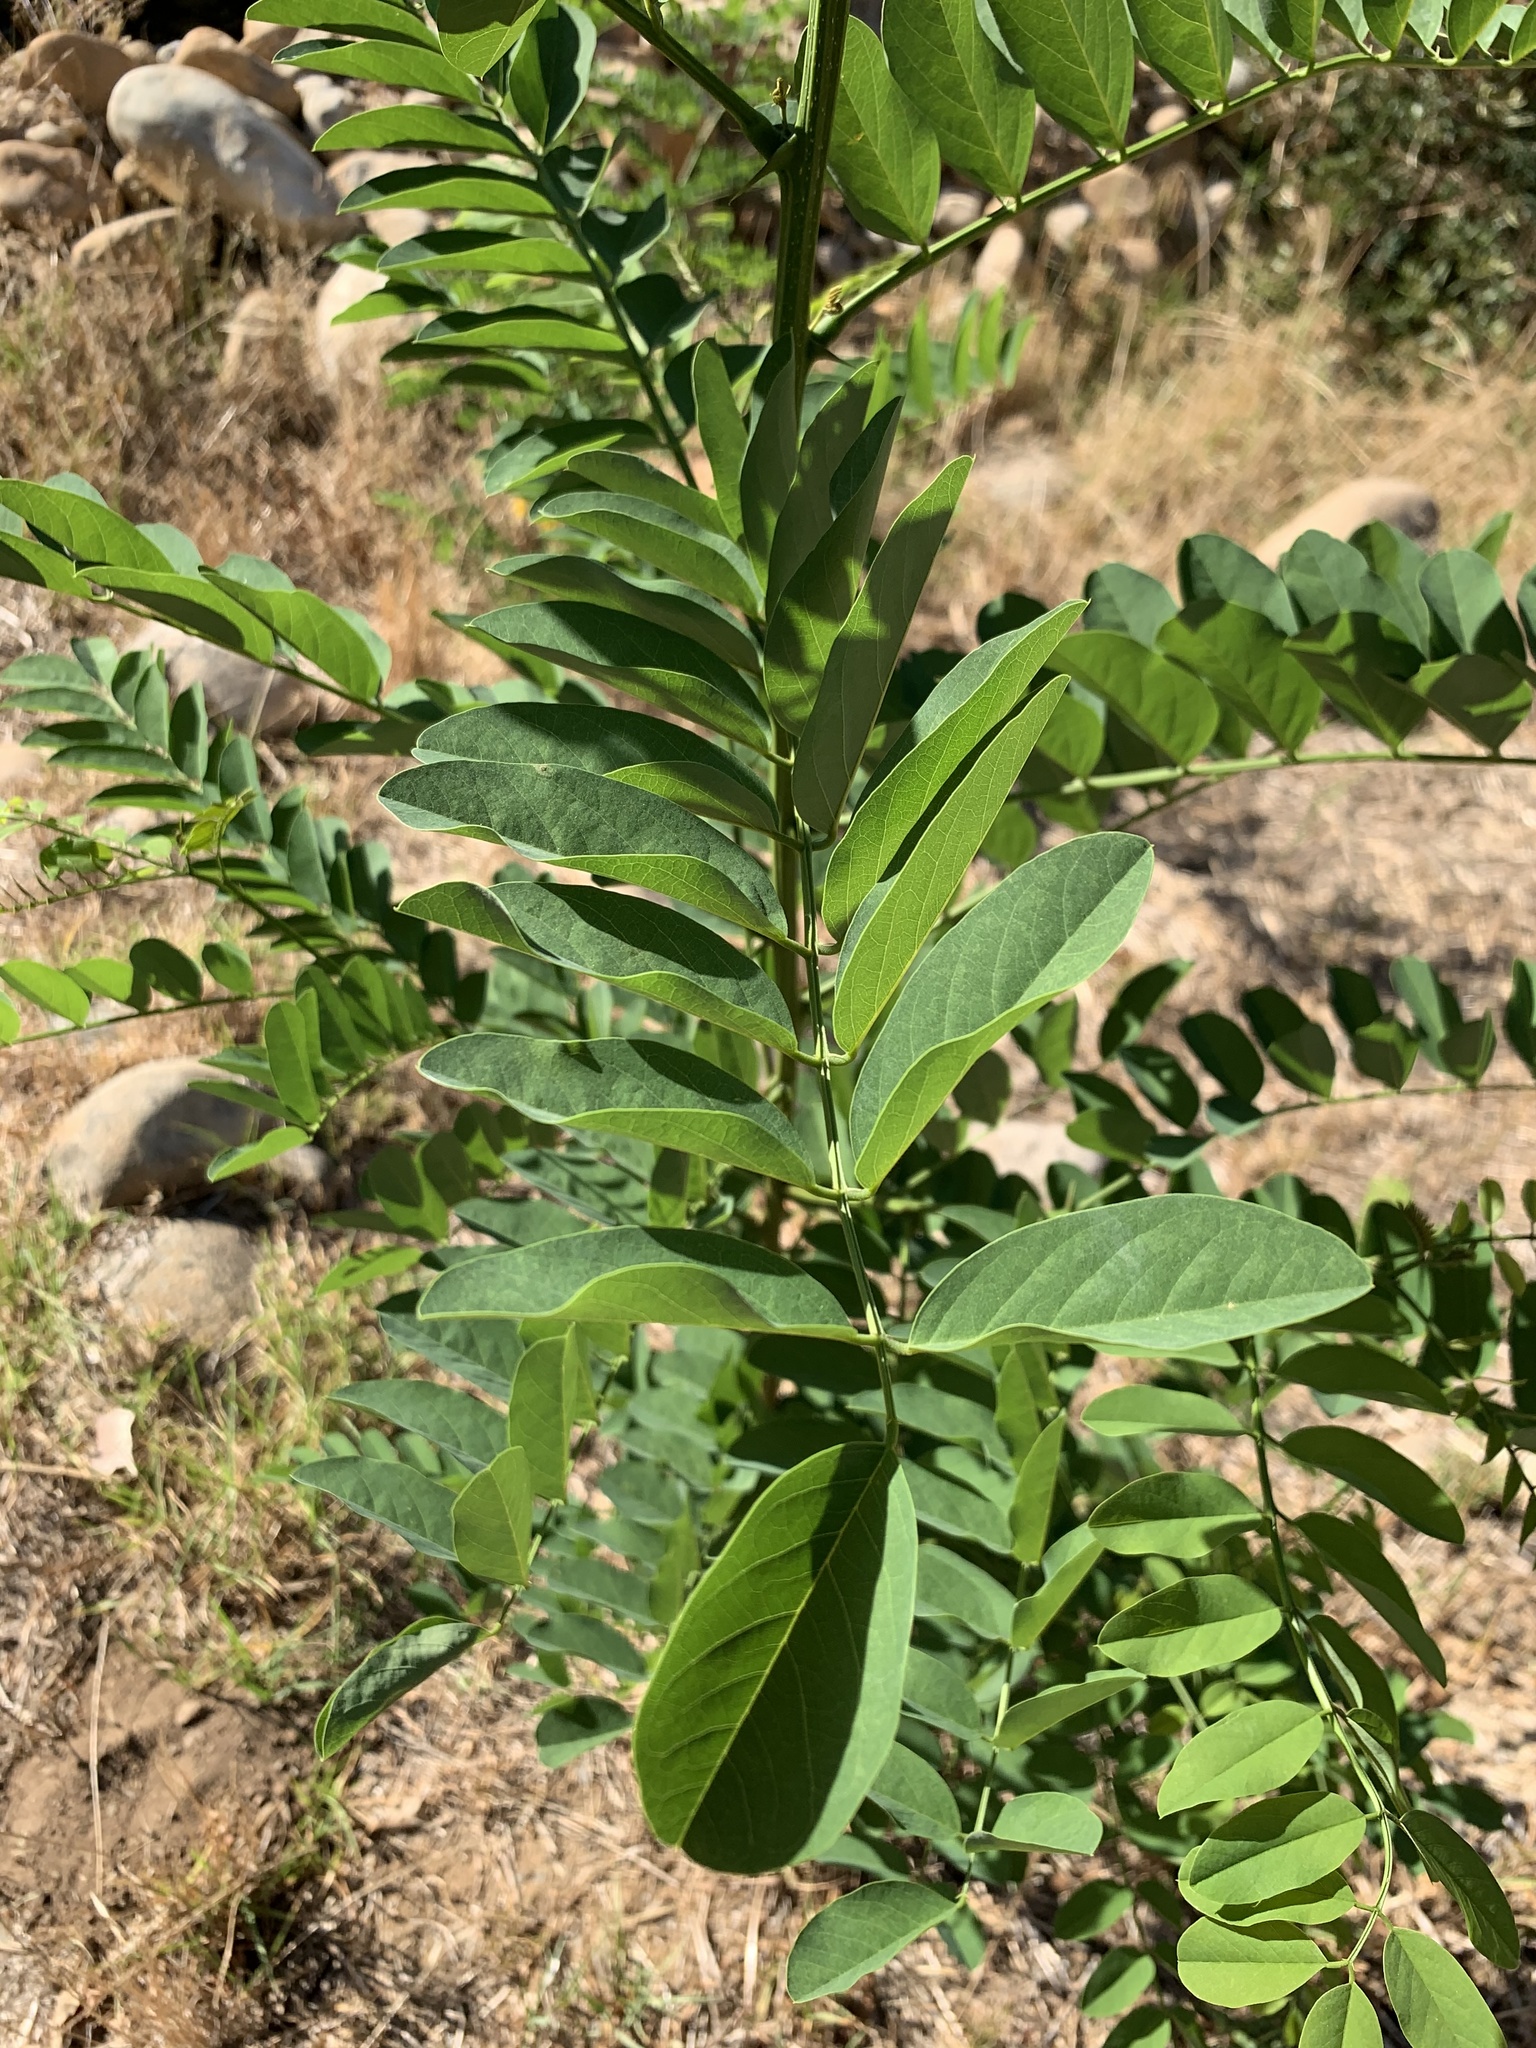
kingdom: Plantae
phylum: Tracheophyta
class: Magnoliopsida
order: Fabales
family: Fabaceae
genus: Robinia
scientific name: Robinia pseudoacacia
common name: Black locust
